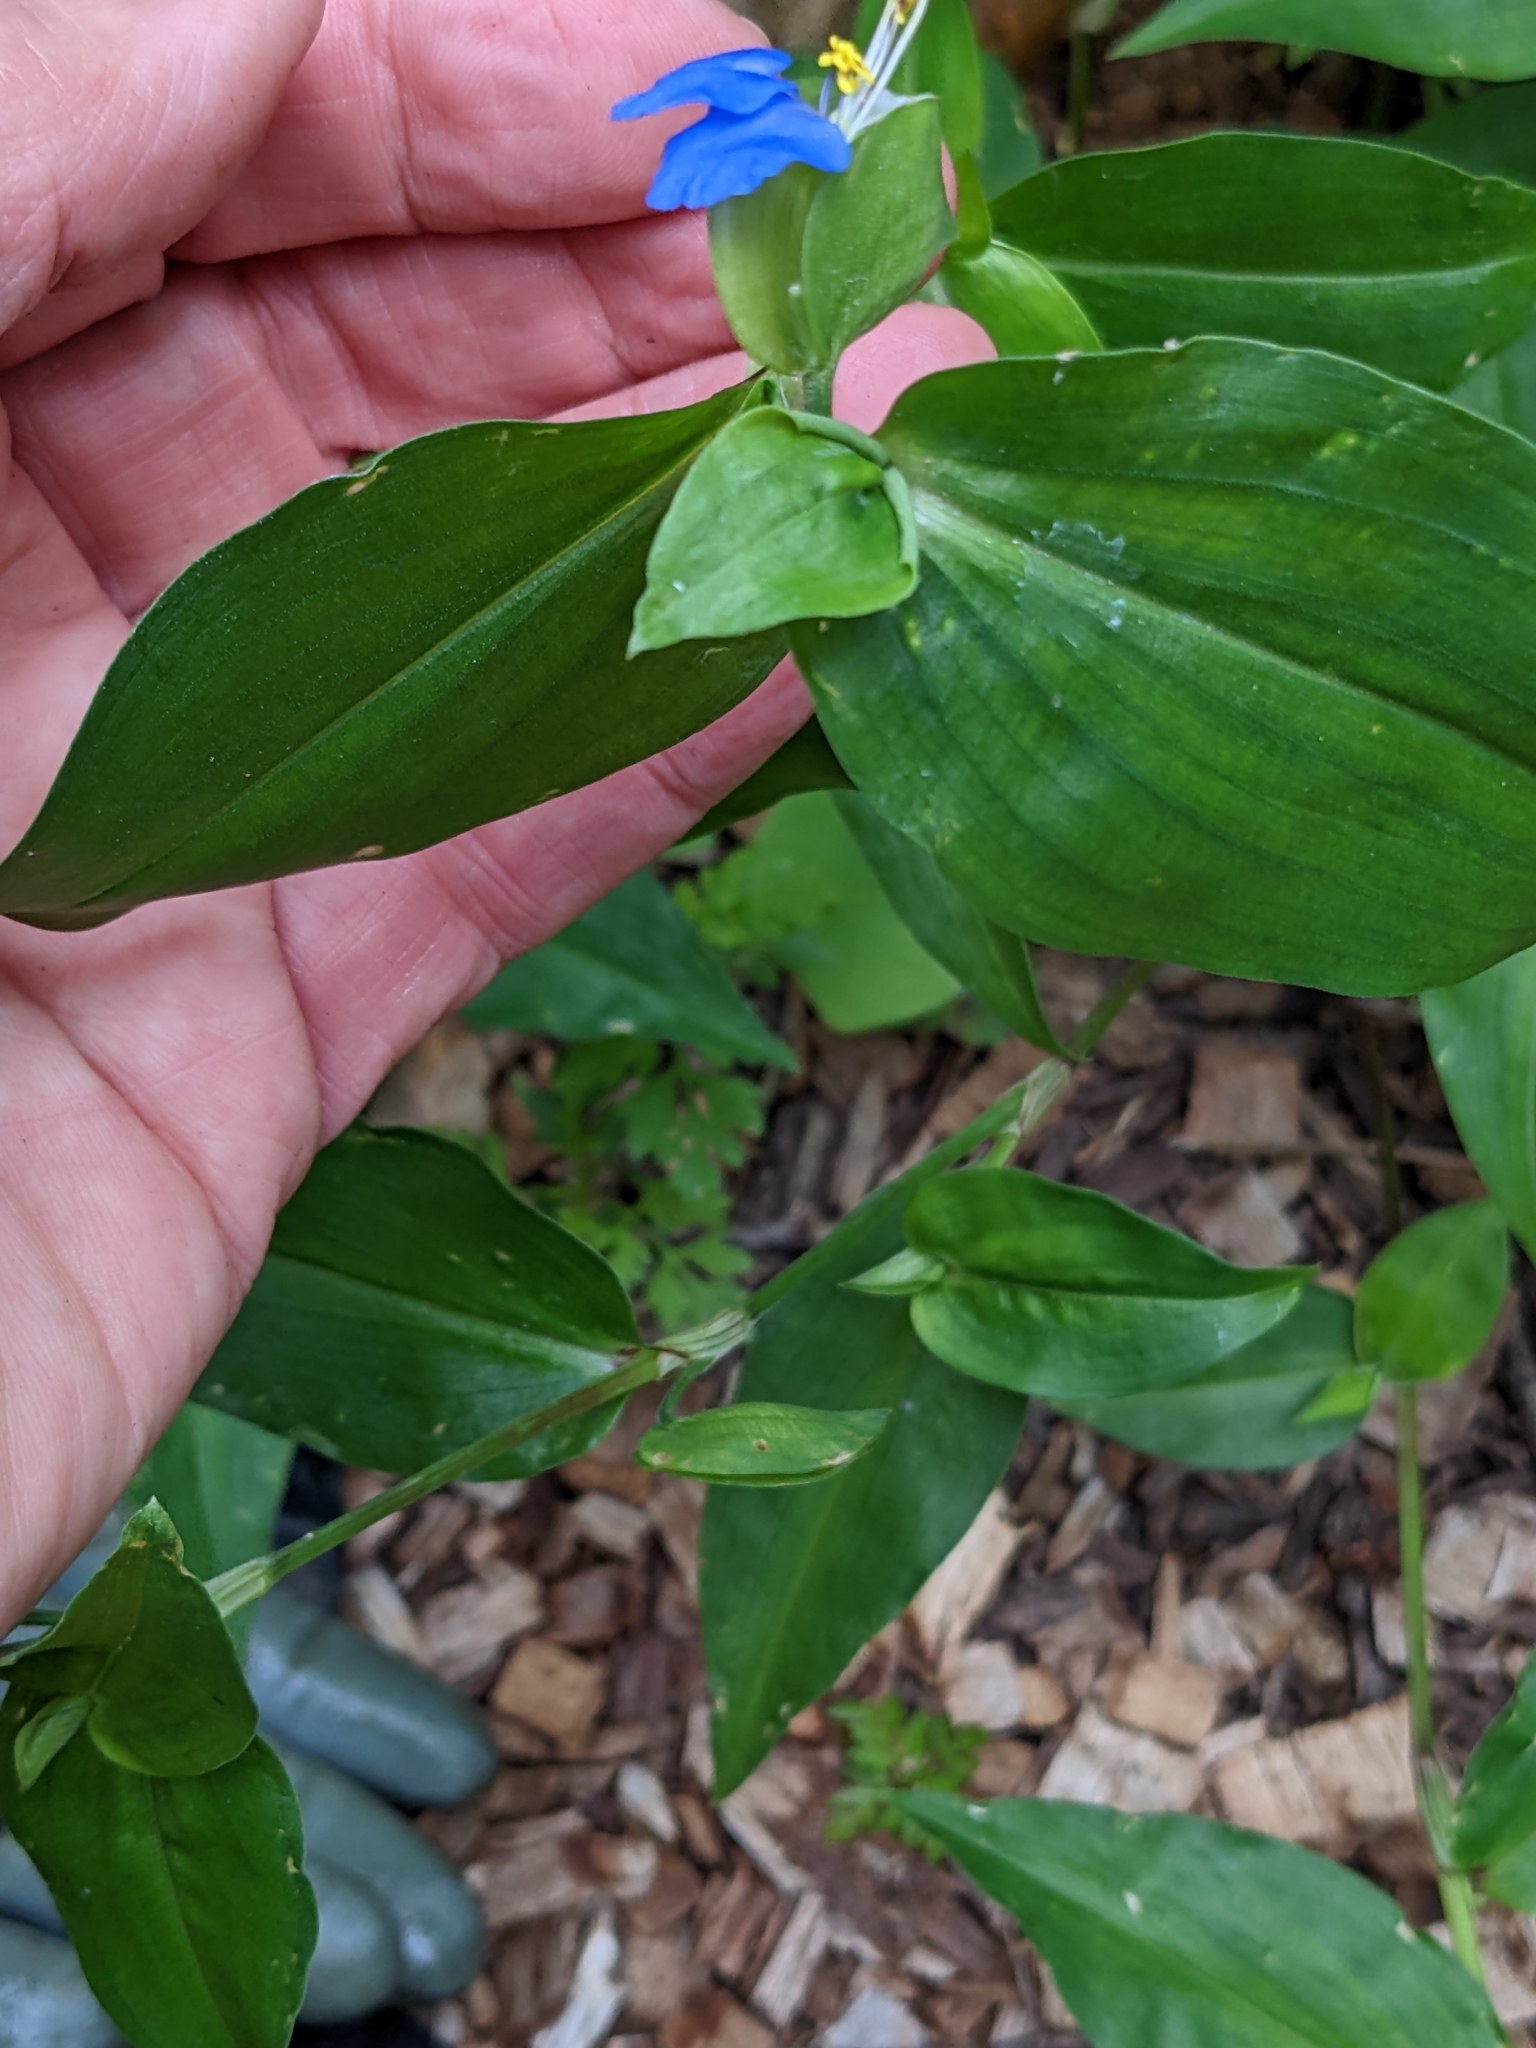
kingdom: Plantae
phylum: Tracheophyta
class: Liliopsida
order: Commelinales
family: Commelinaceae
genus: Commelina
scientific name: Commelina communis
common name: Asiatic dayflower
